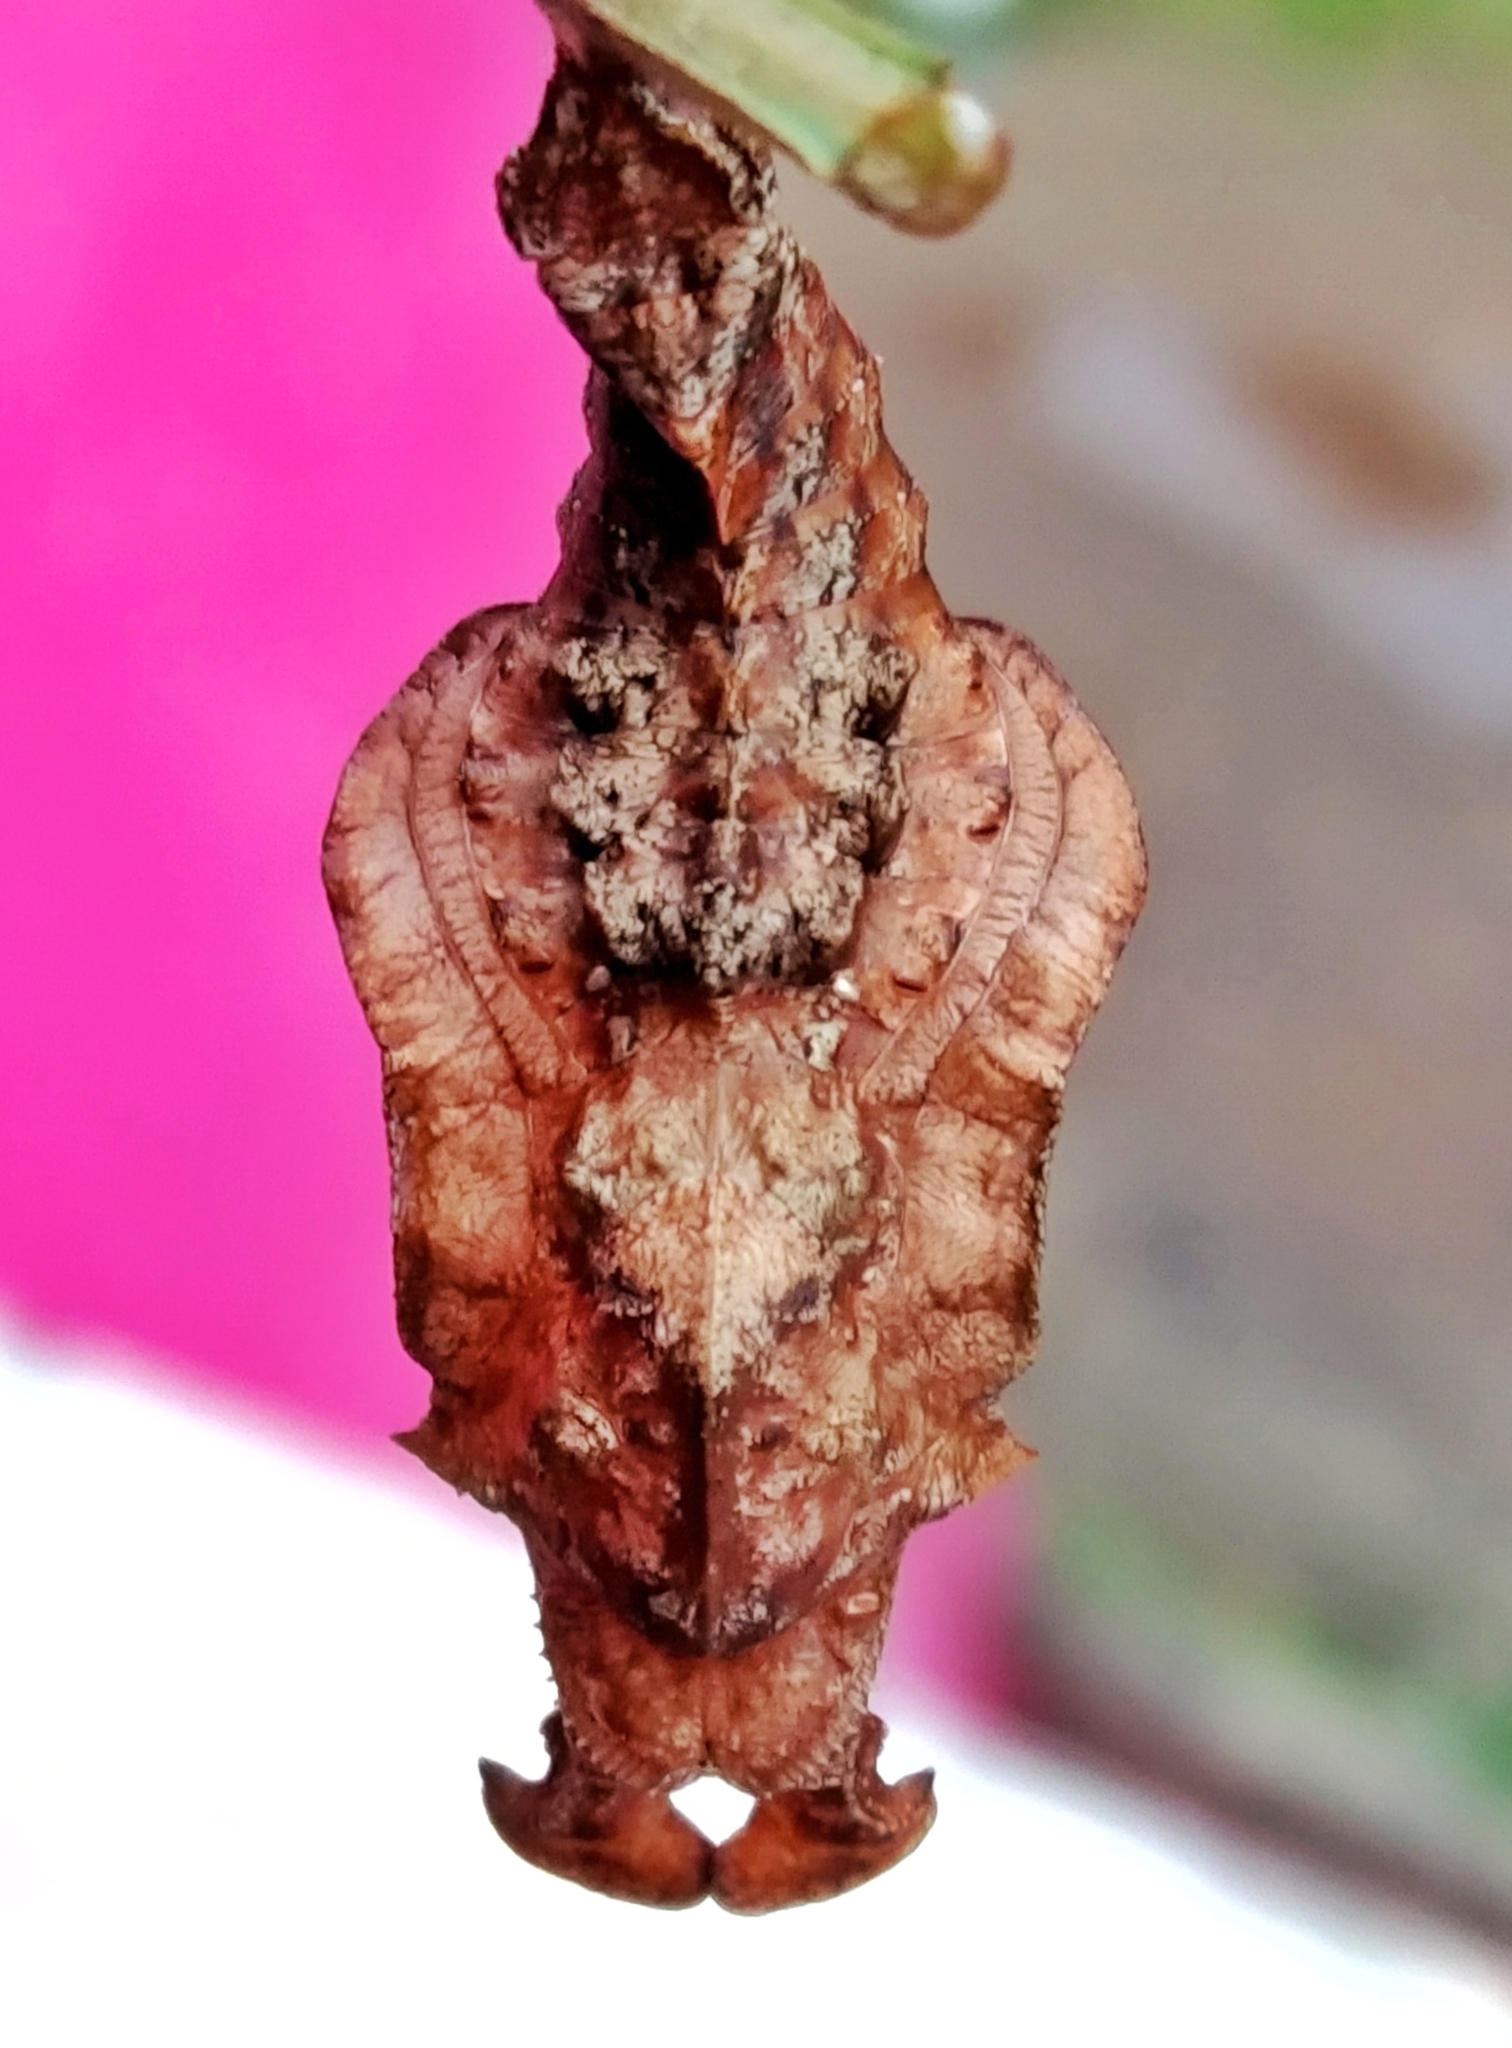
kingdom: Animalia
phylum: Arthropoda
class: Insecta
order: Lepidoptera
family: Nymphalidae
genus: Limenitis
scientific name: Limenitis Moduza procris
